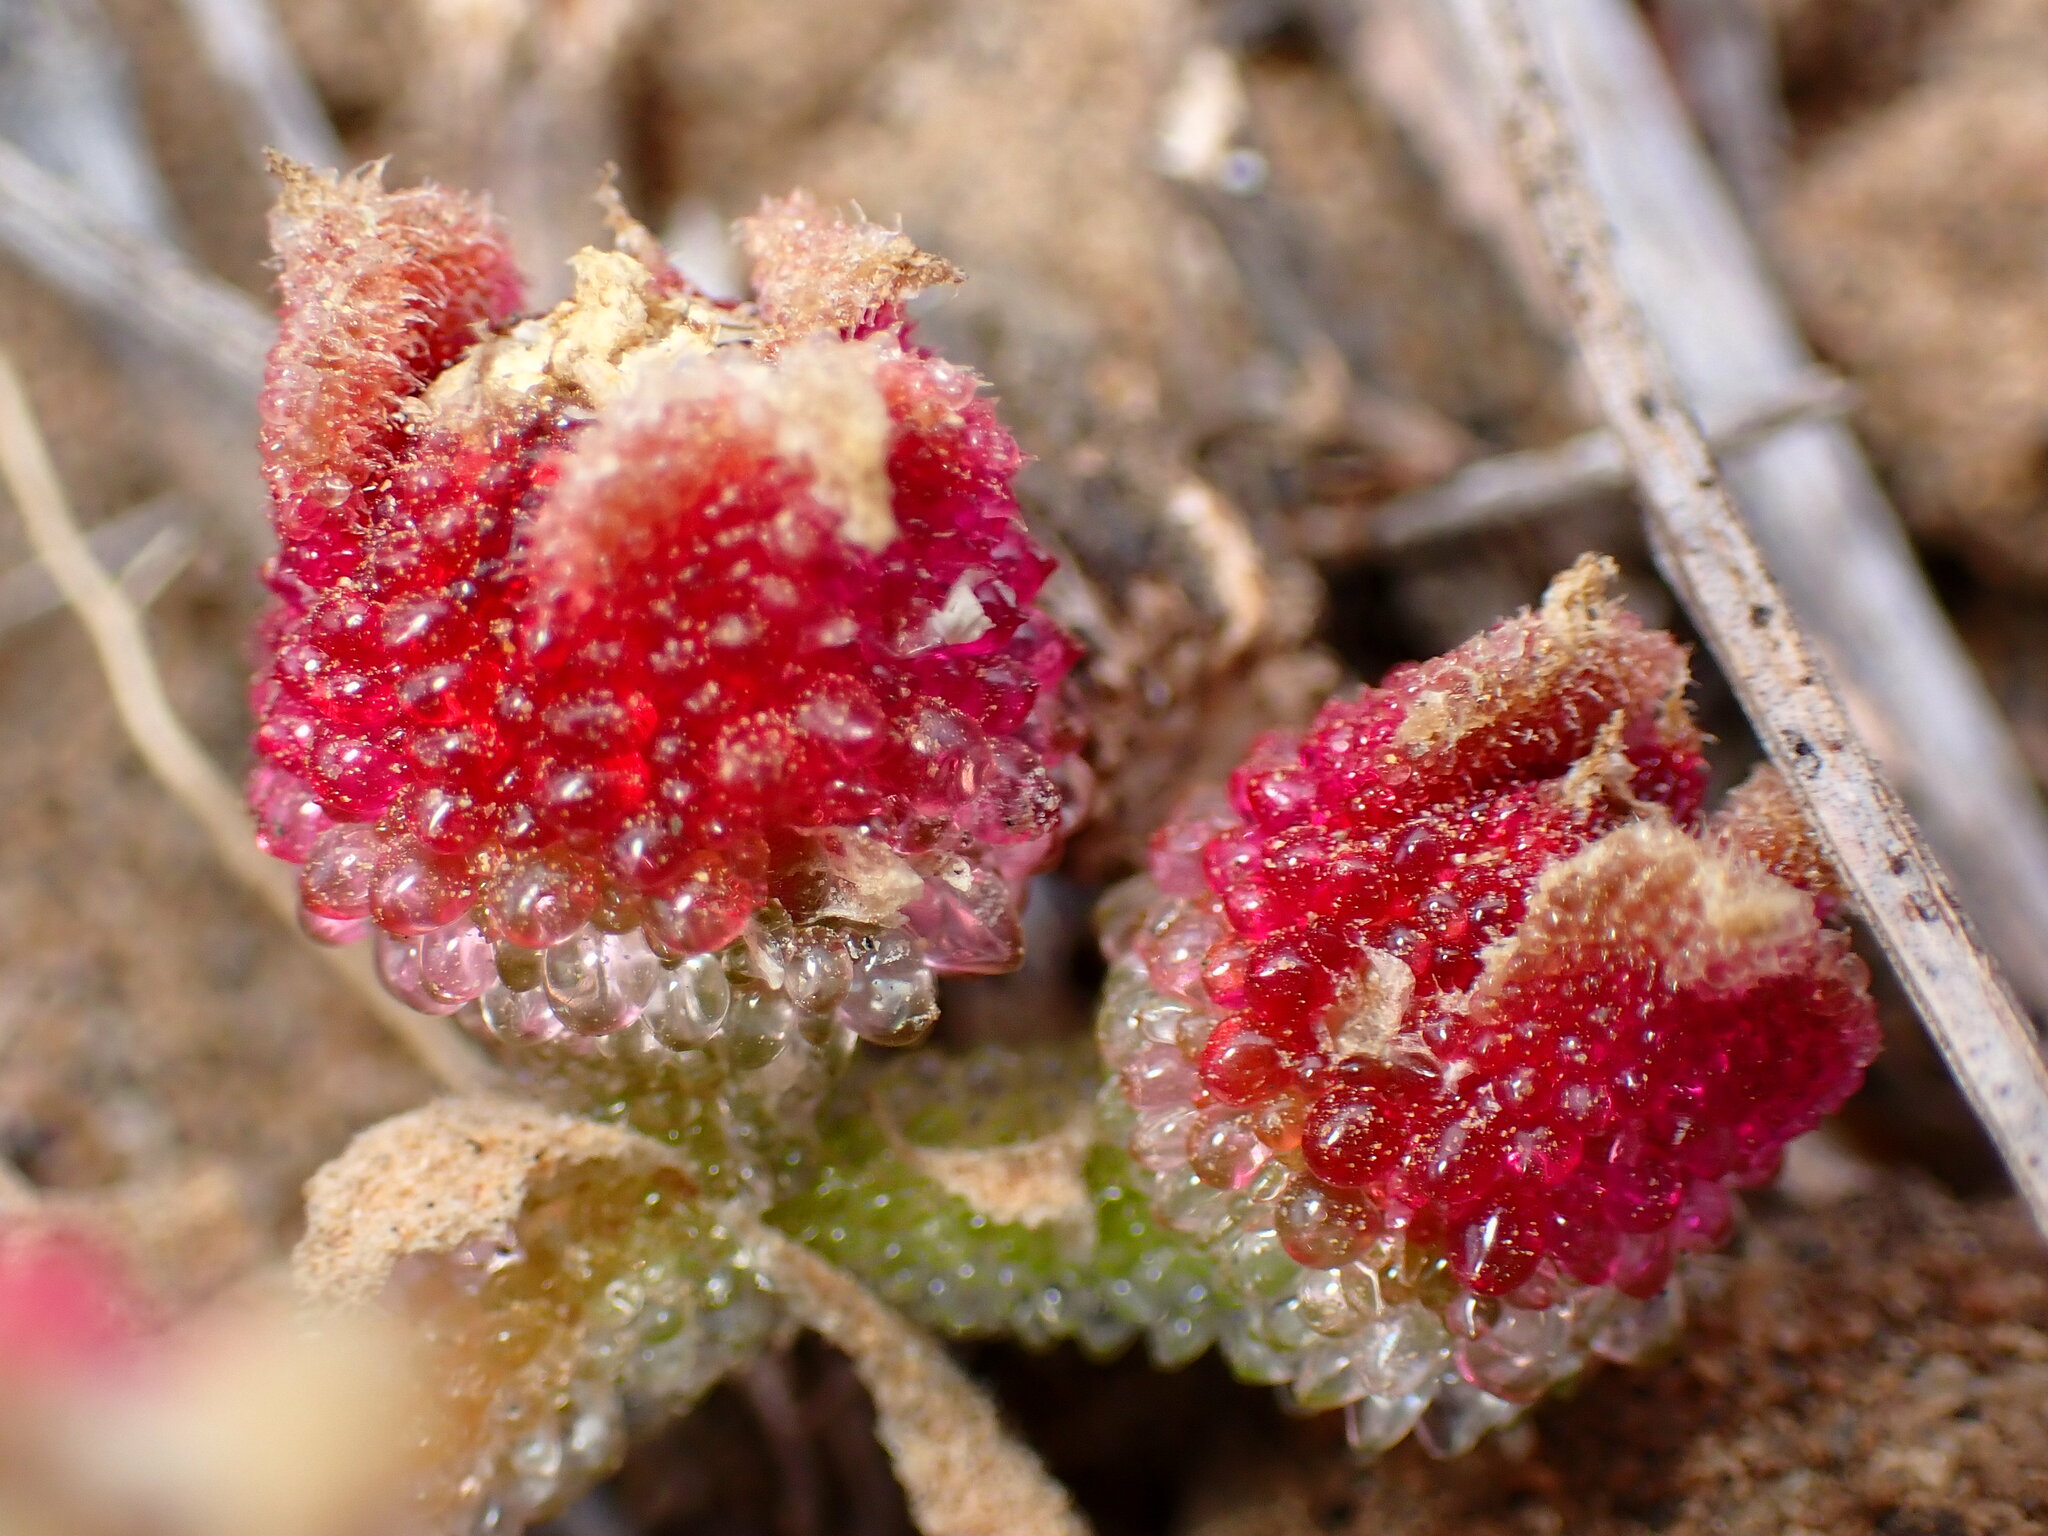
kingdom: Plantae
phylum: Tracheophyta
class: Magnoliopsida
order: Caryophyllales
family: Aizoaceae
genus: Mesembryanthemum
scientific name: Mesembryanthemum crystallinum
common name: Common iceplant
